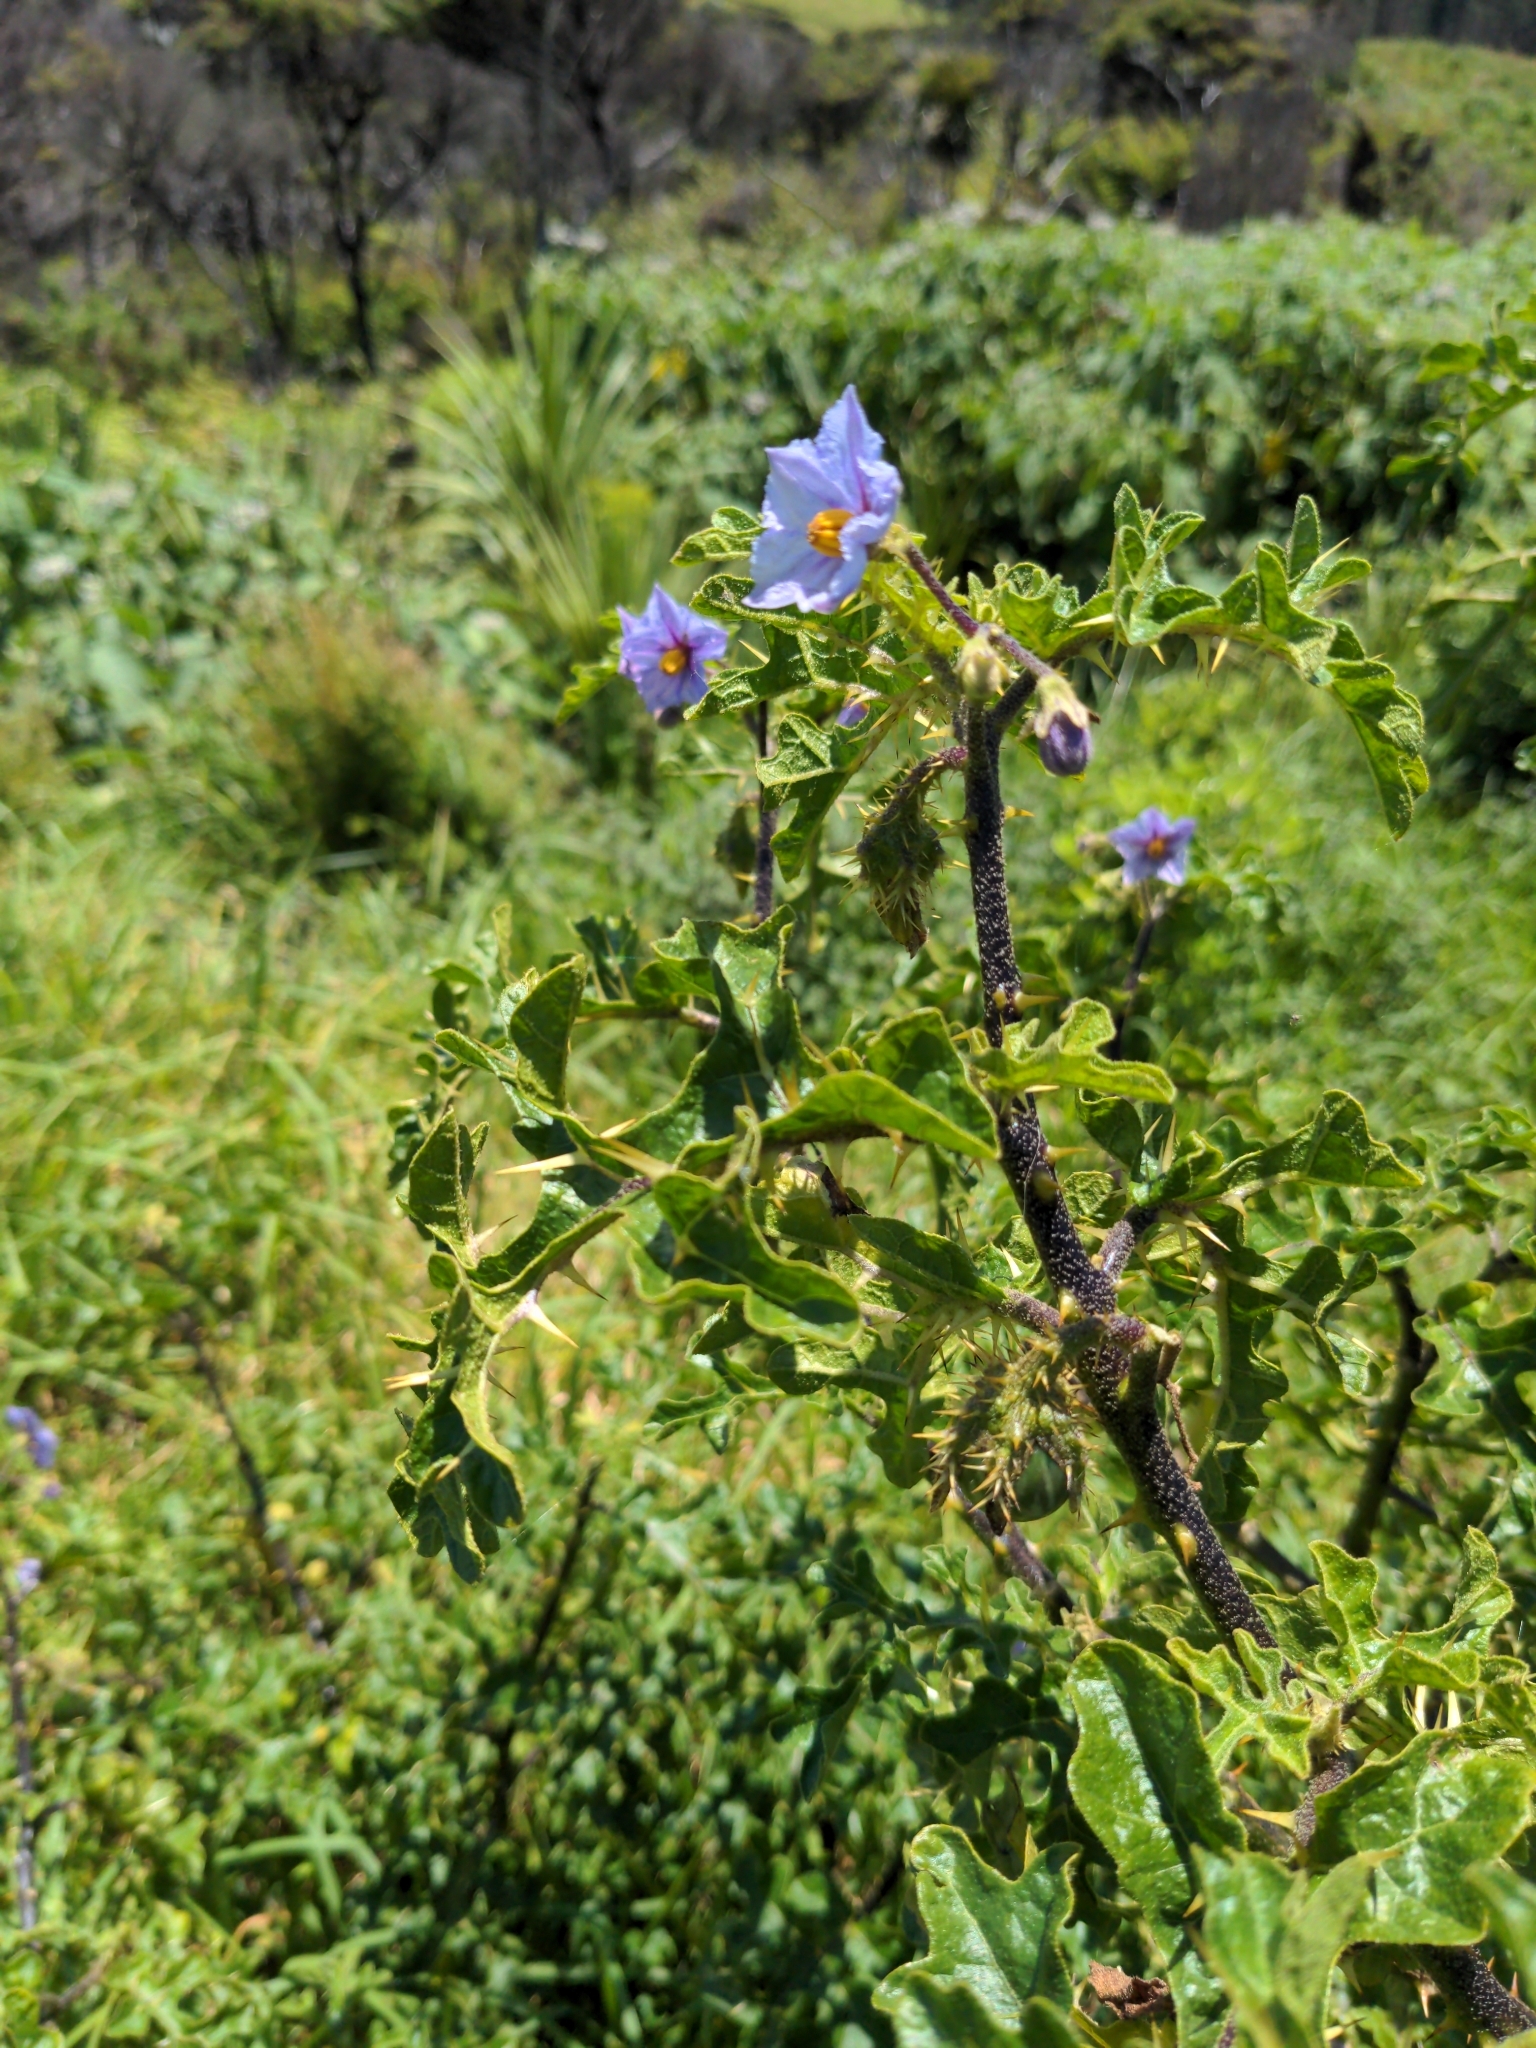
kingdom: Plantae
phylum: Tracheophyta
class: Magnoliopsida
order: Solanales
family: Solanaceae
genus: Solanum
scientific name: Solanum linnaeanum
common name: Nightshade
